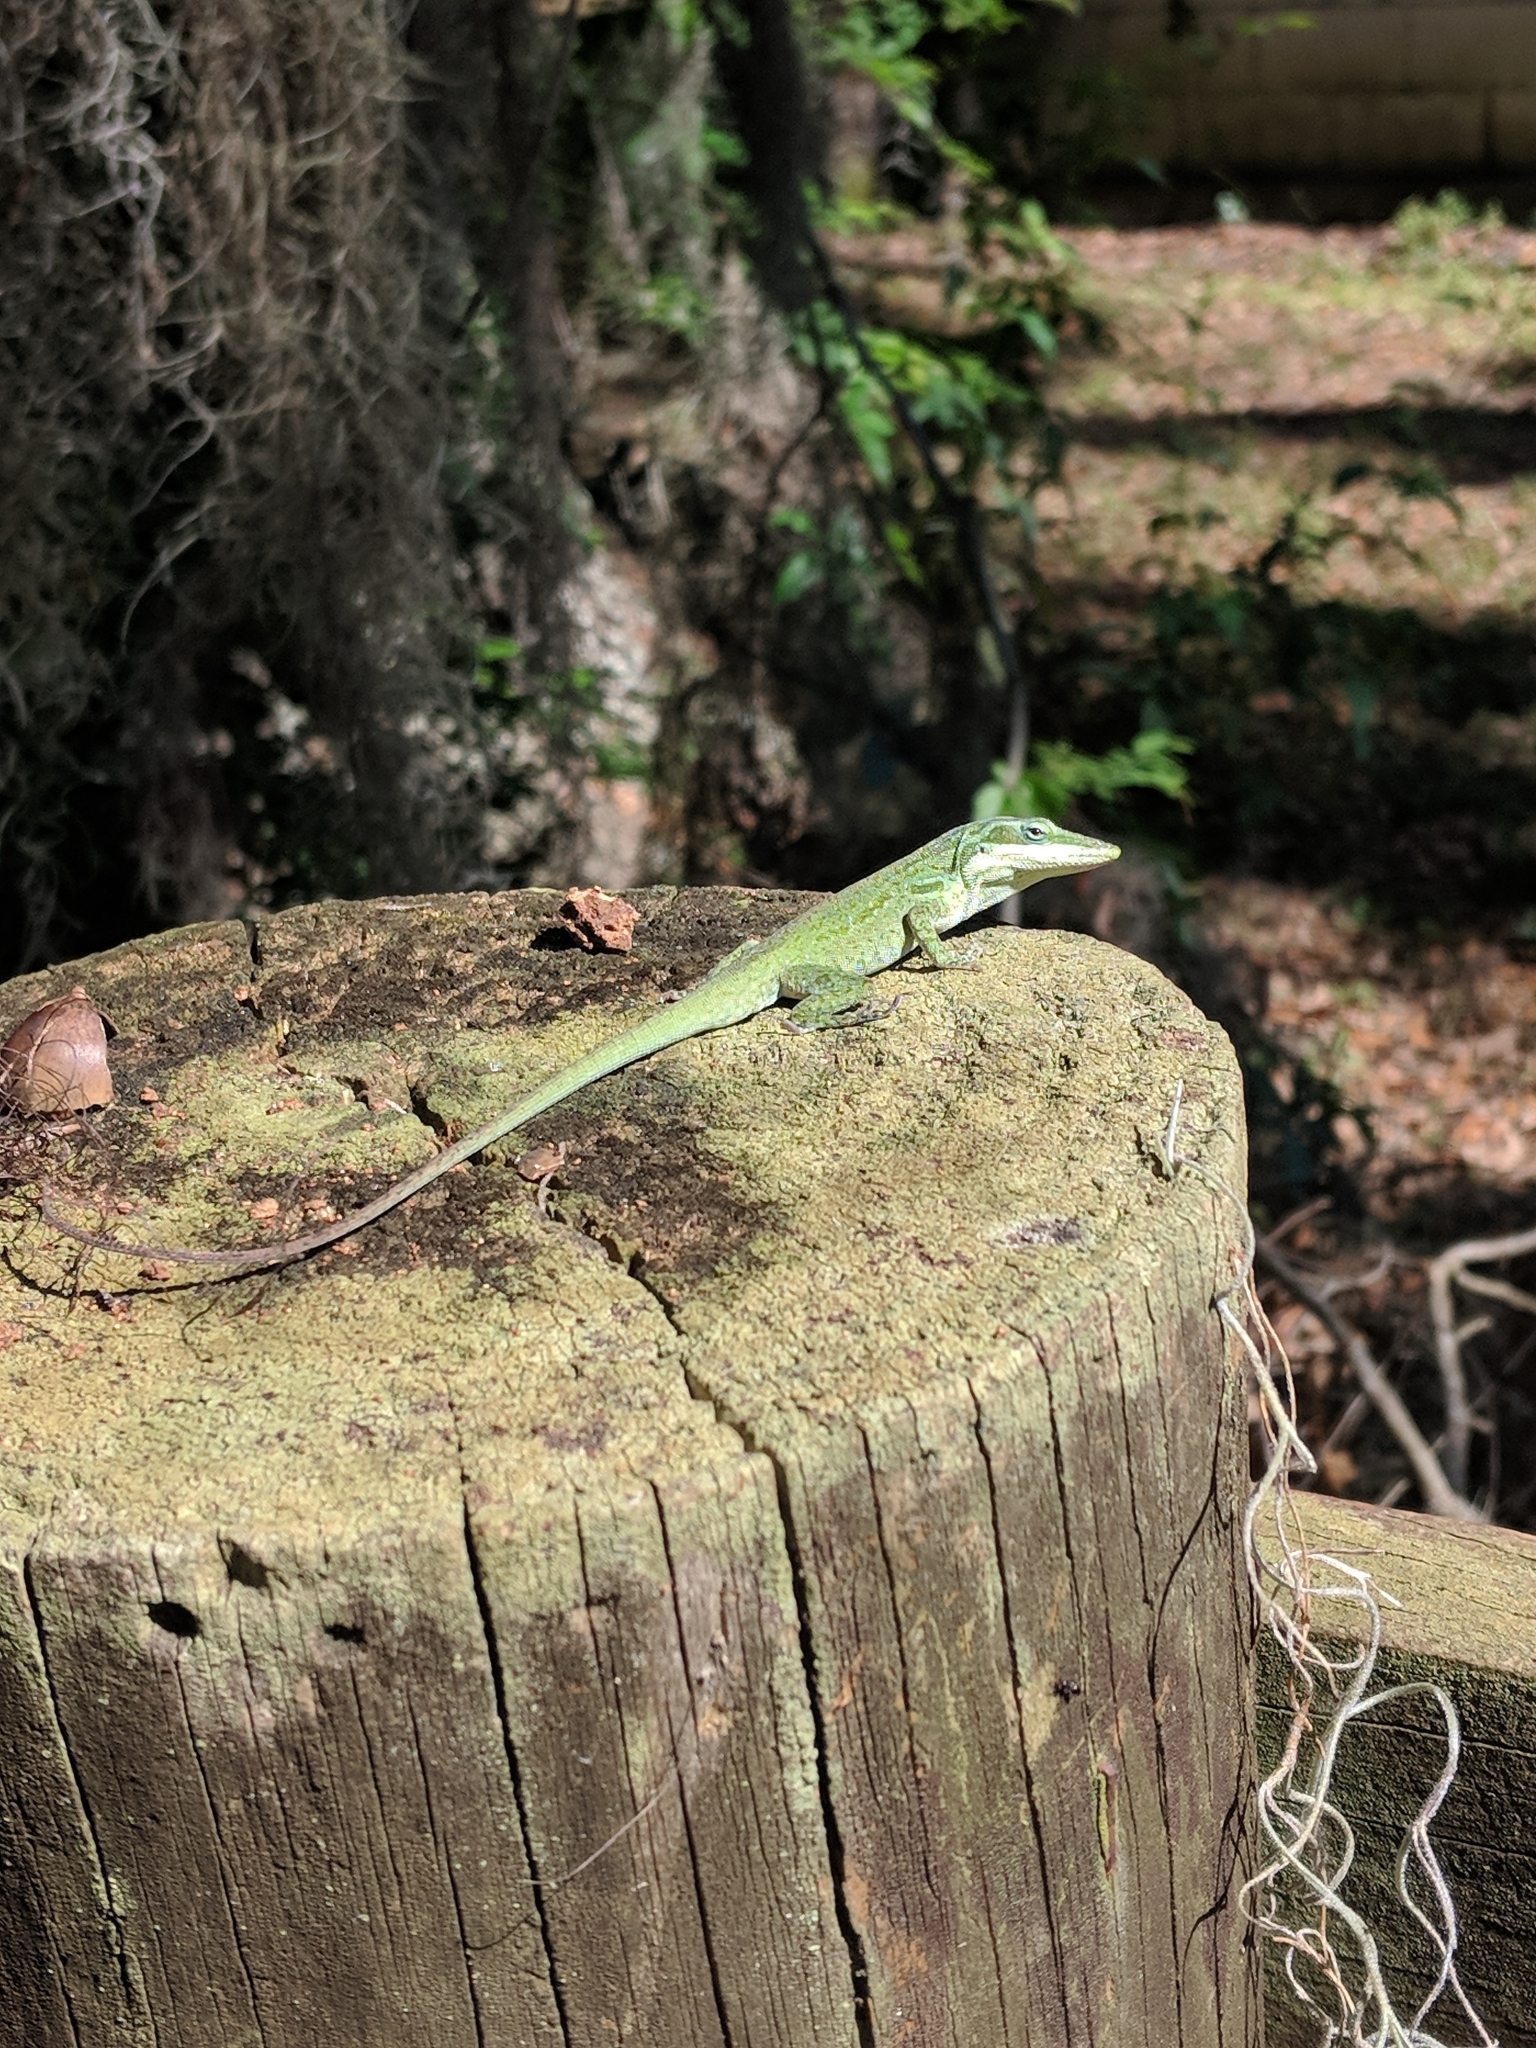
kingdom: Animalia
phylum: Chordata
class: Squamata
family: Dactyloidae
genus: Anolis
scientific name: Anolis carolinensis
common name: Green anole
